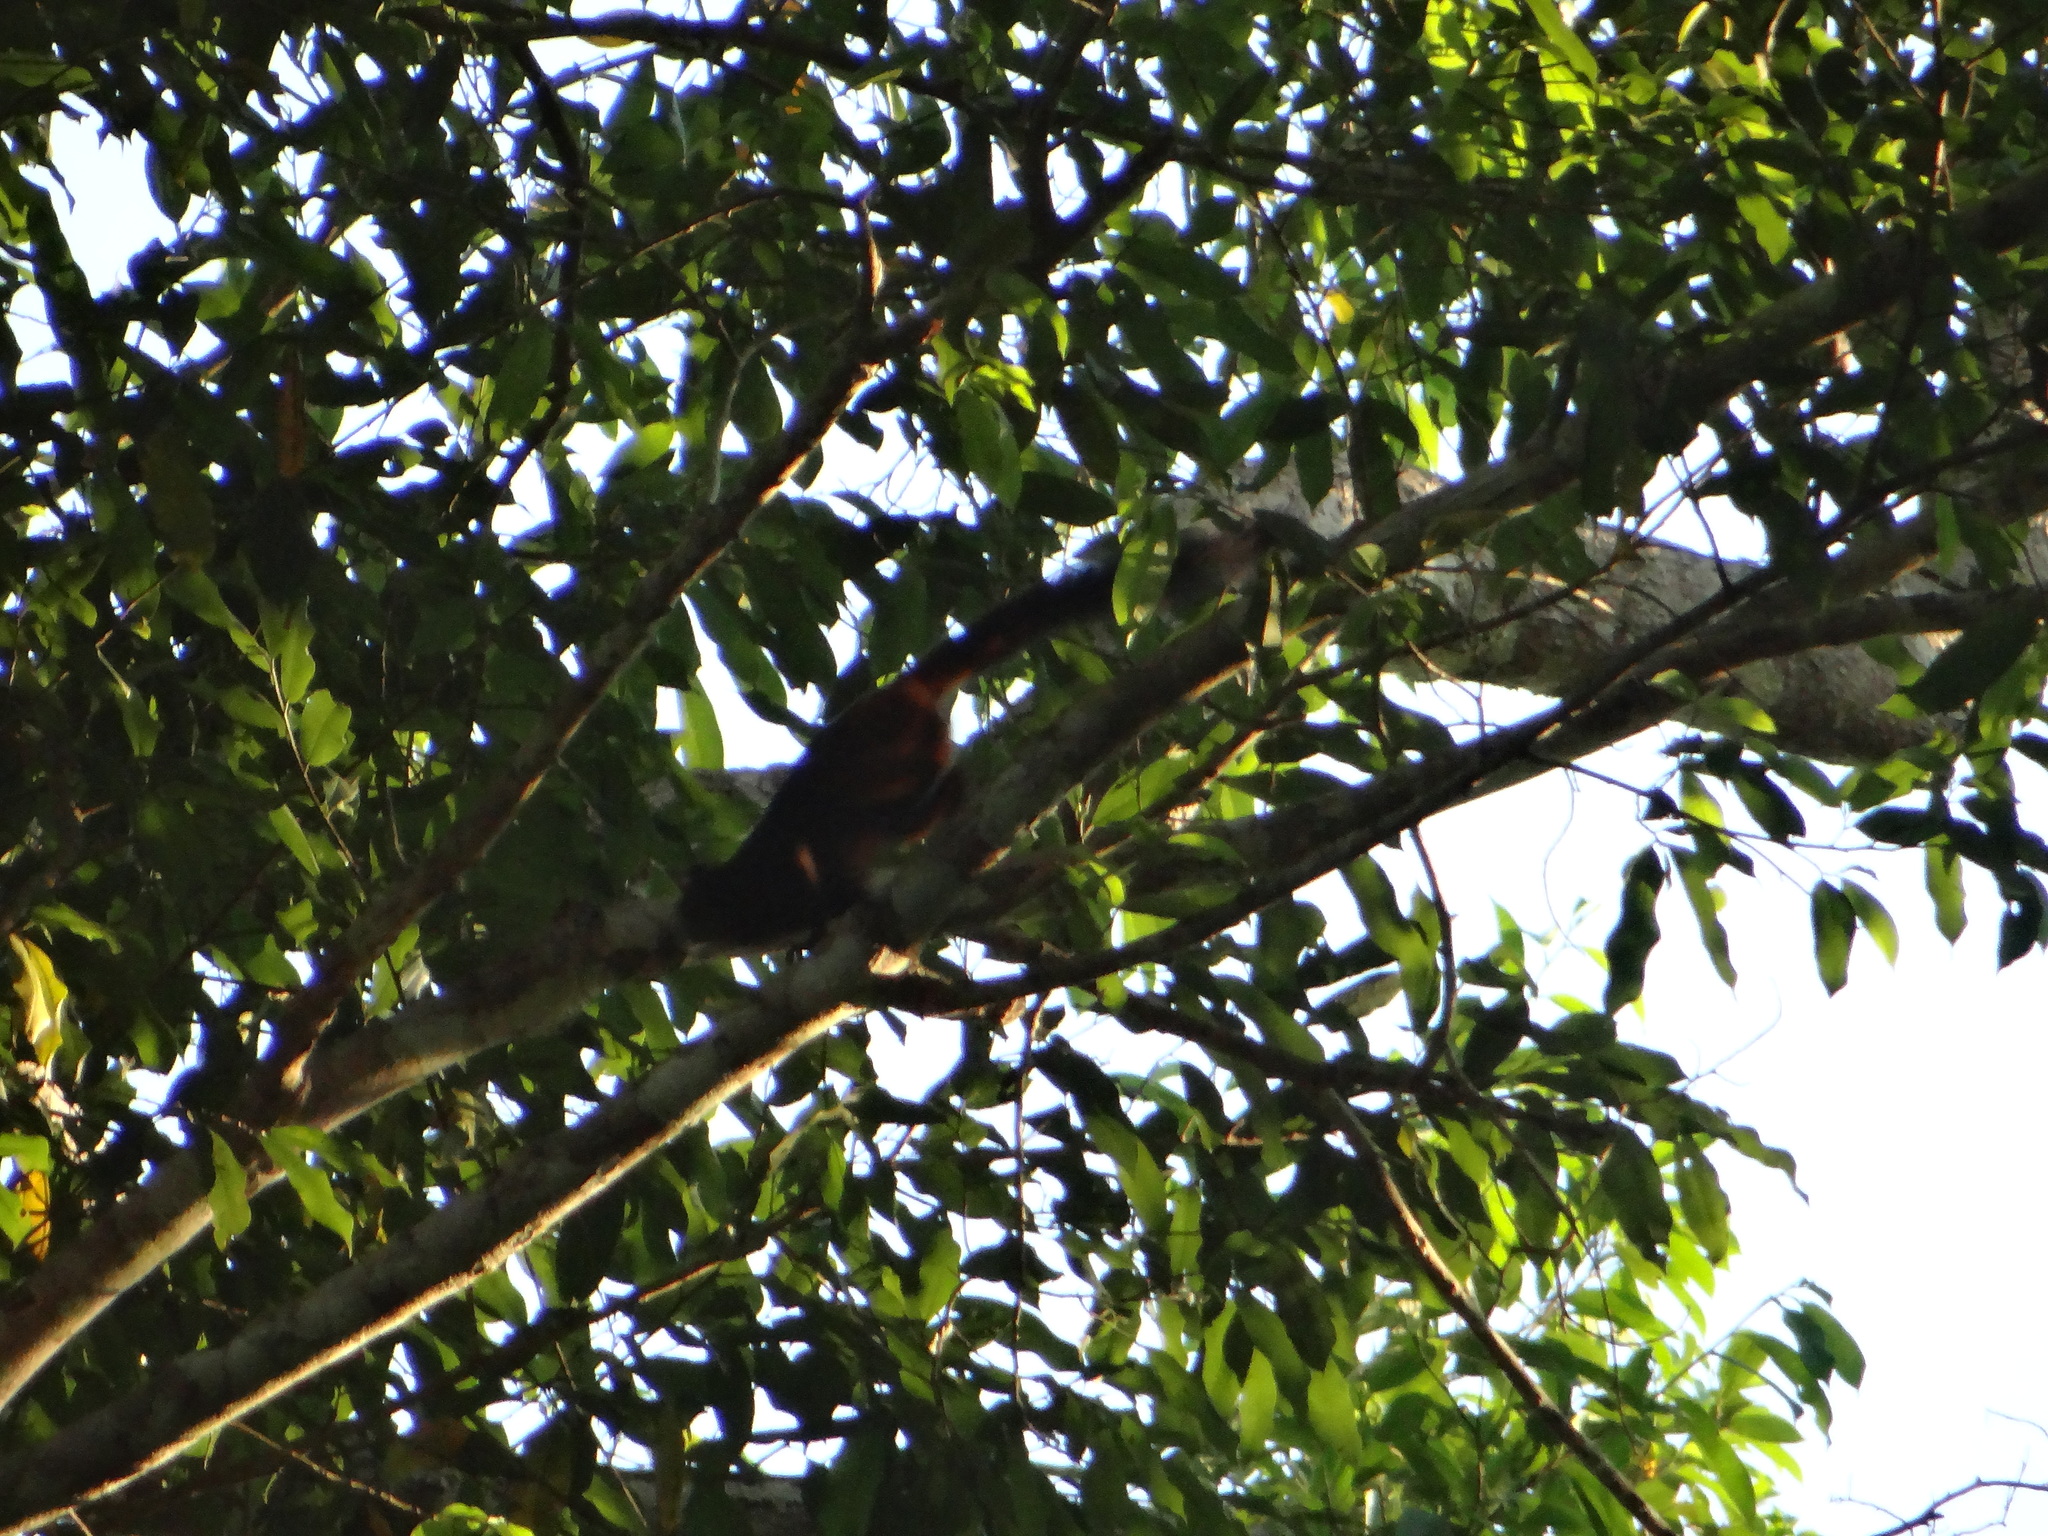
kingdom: Animalia
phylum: Chordata
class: Mammalia
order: Primates
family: Callitrichidae
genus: Leontocebus
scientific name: Leontocebus weddelli
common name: Weddell's saddle-back tamarin
